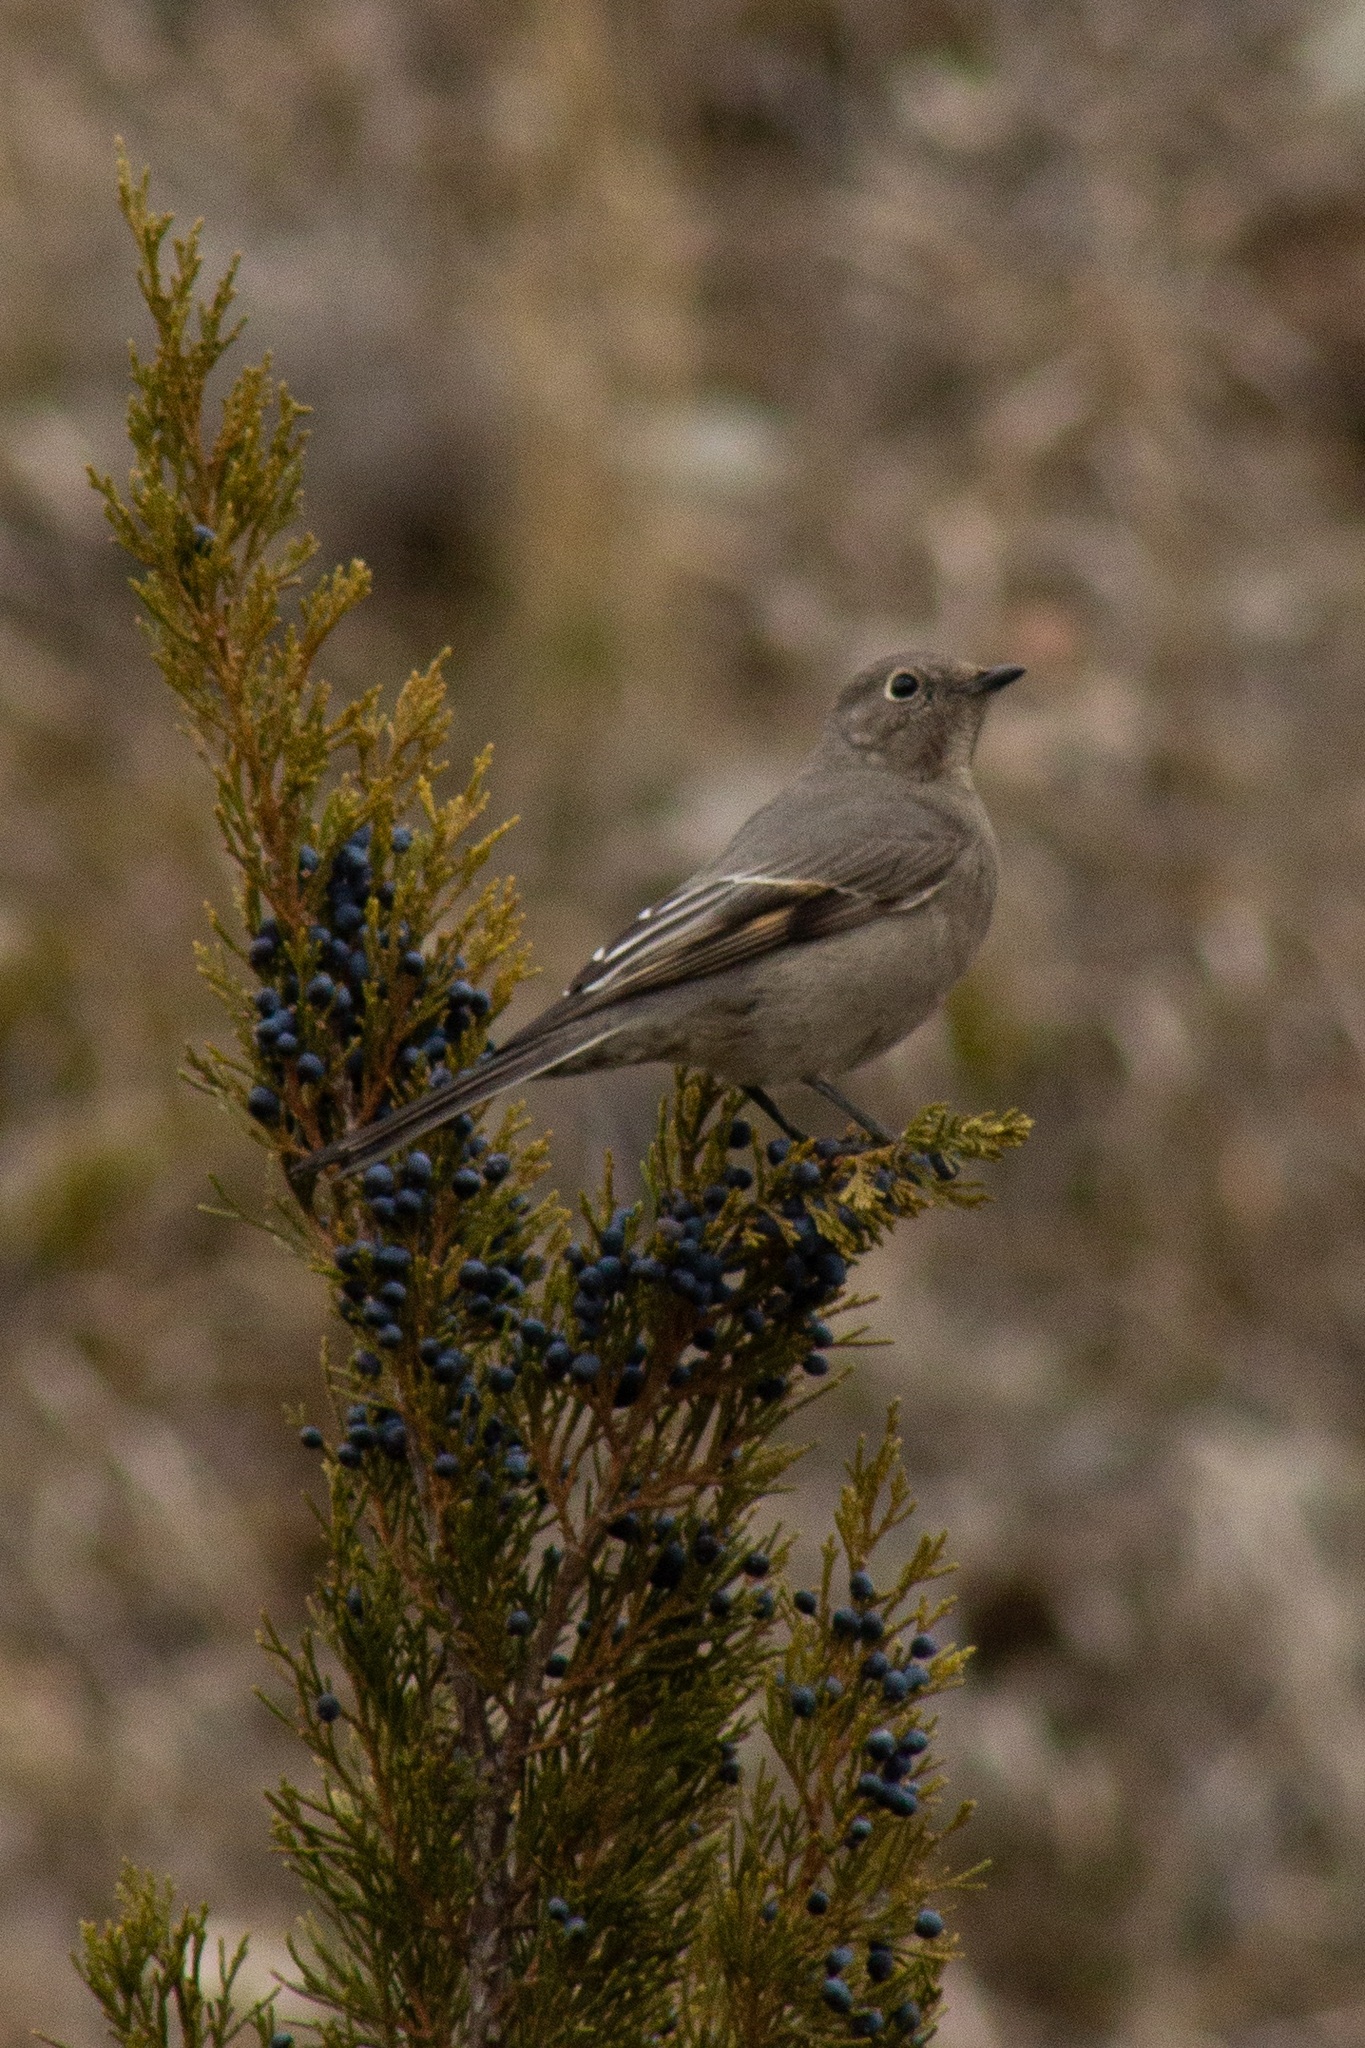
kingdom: Animalia
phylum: Chordata
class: Aves
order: Passeriformes
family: Turdidae
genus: Myadestes
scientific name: Myadestes townsendi
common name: Townsend's solitaire
